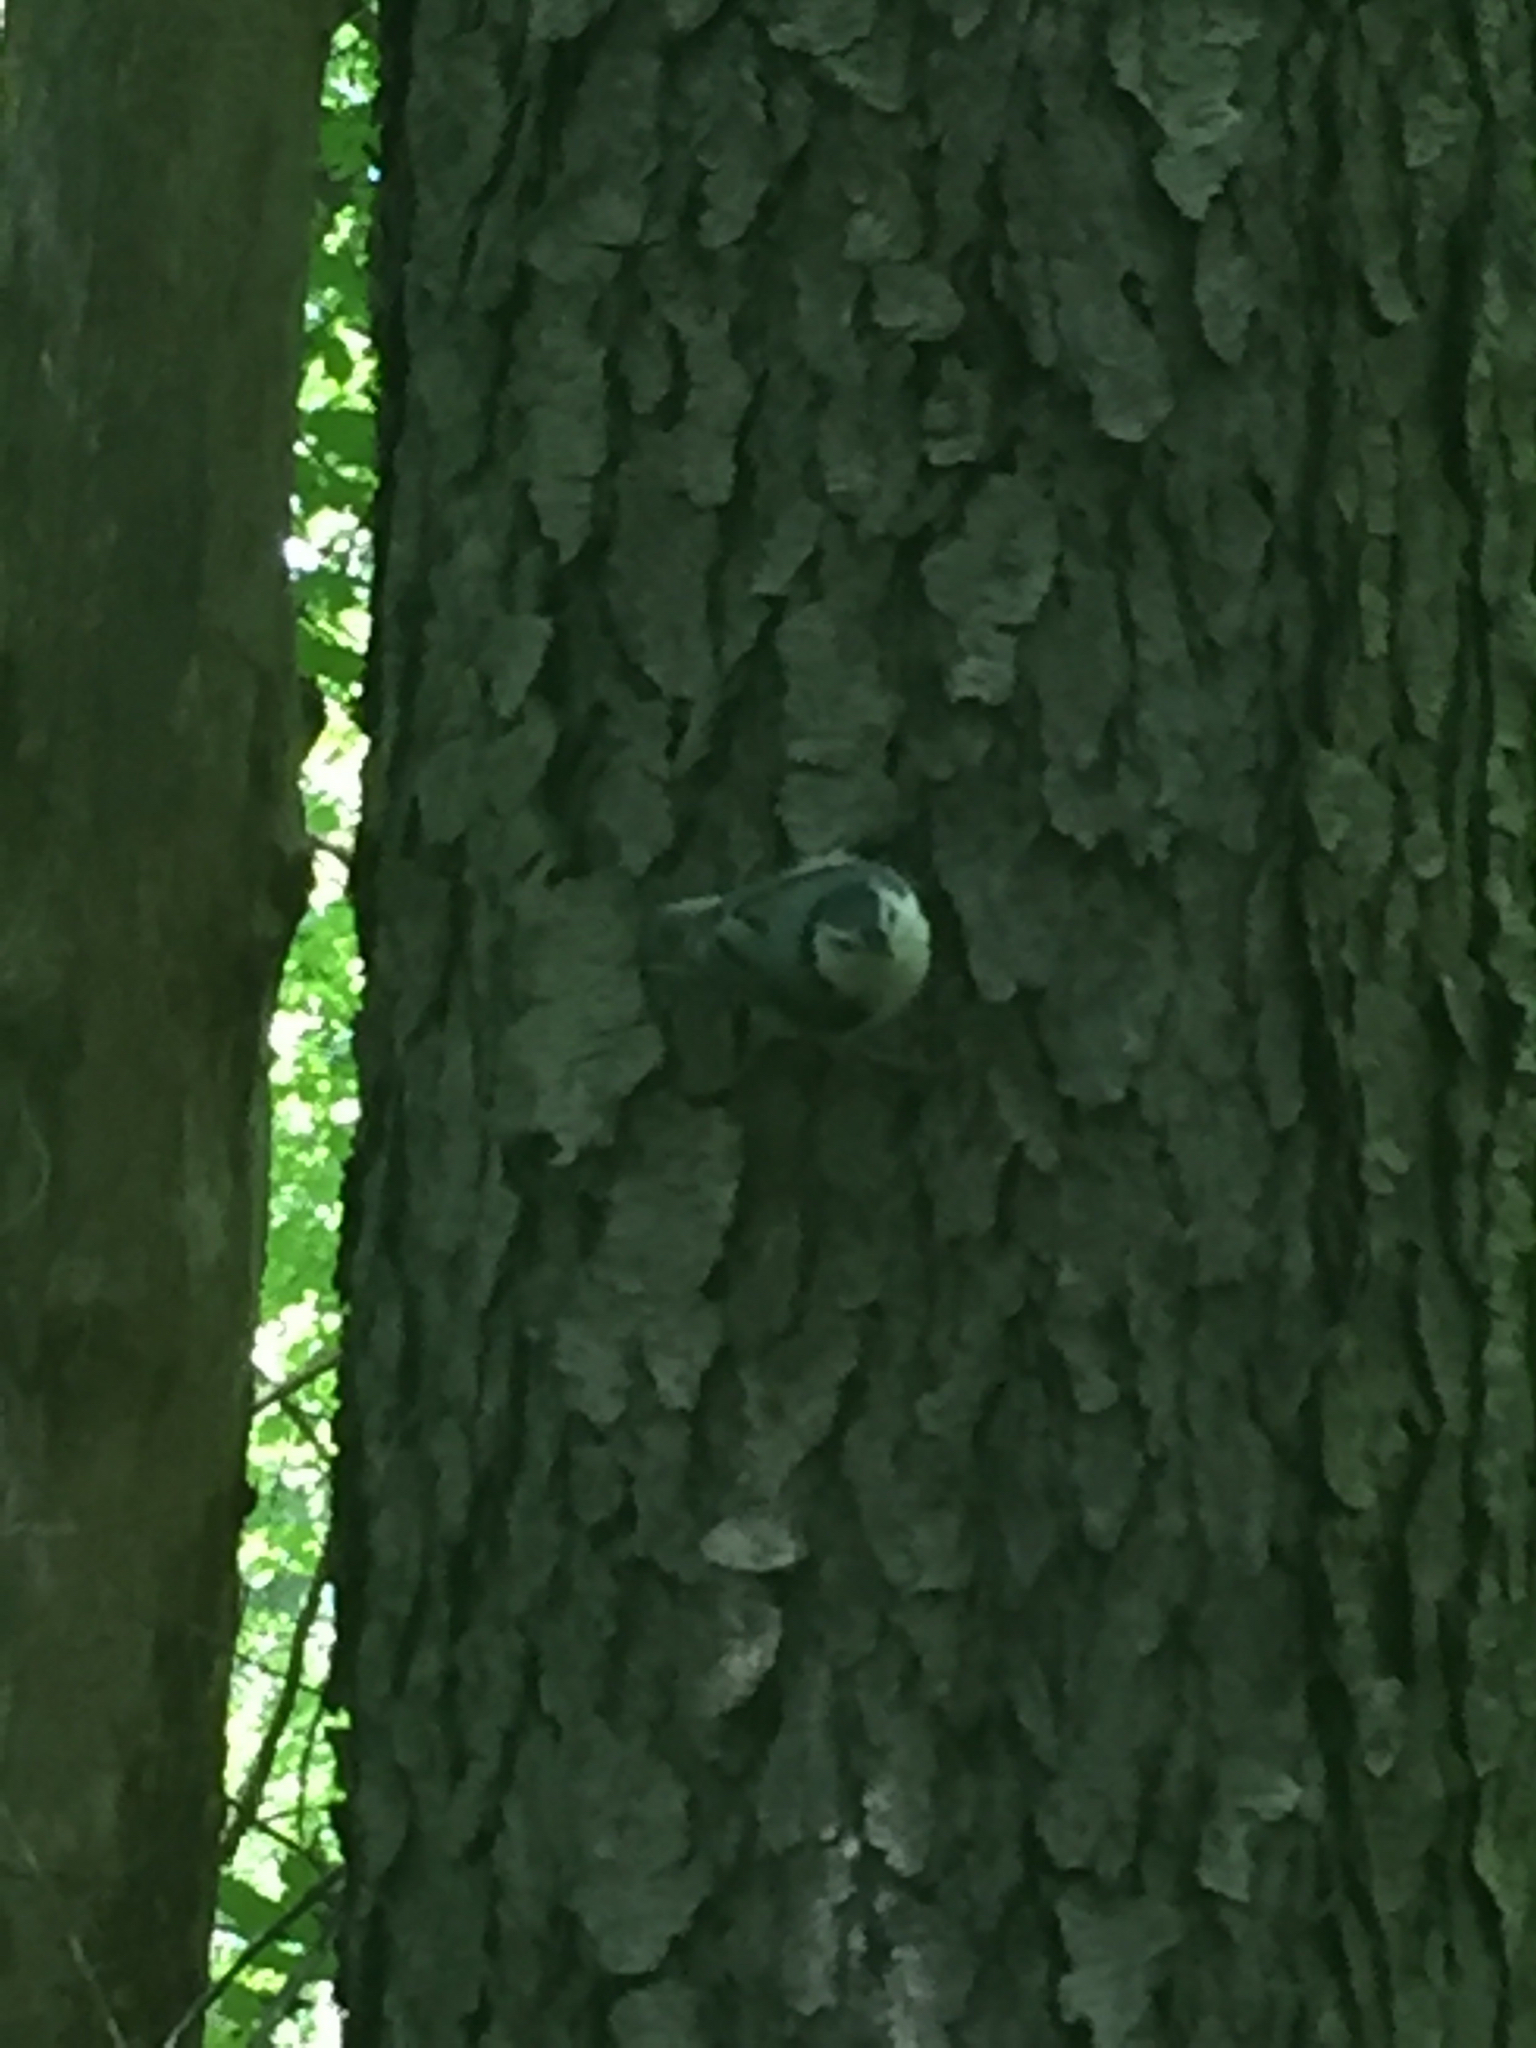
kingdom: Animalia
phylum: Chordata
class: Aves
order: Passeriformes
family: Sittidae
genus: Sitta
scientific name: Sitta carolinensis
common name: White-breasted nuthatch
